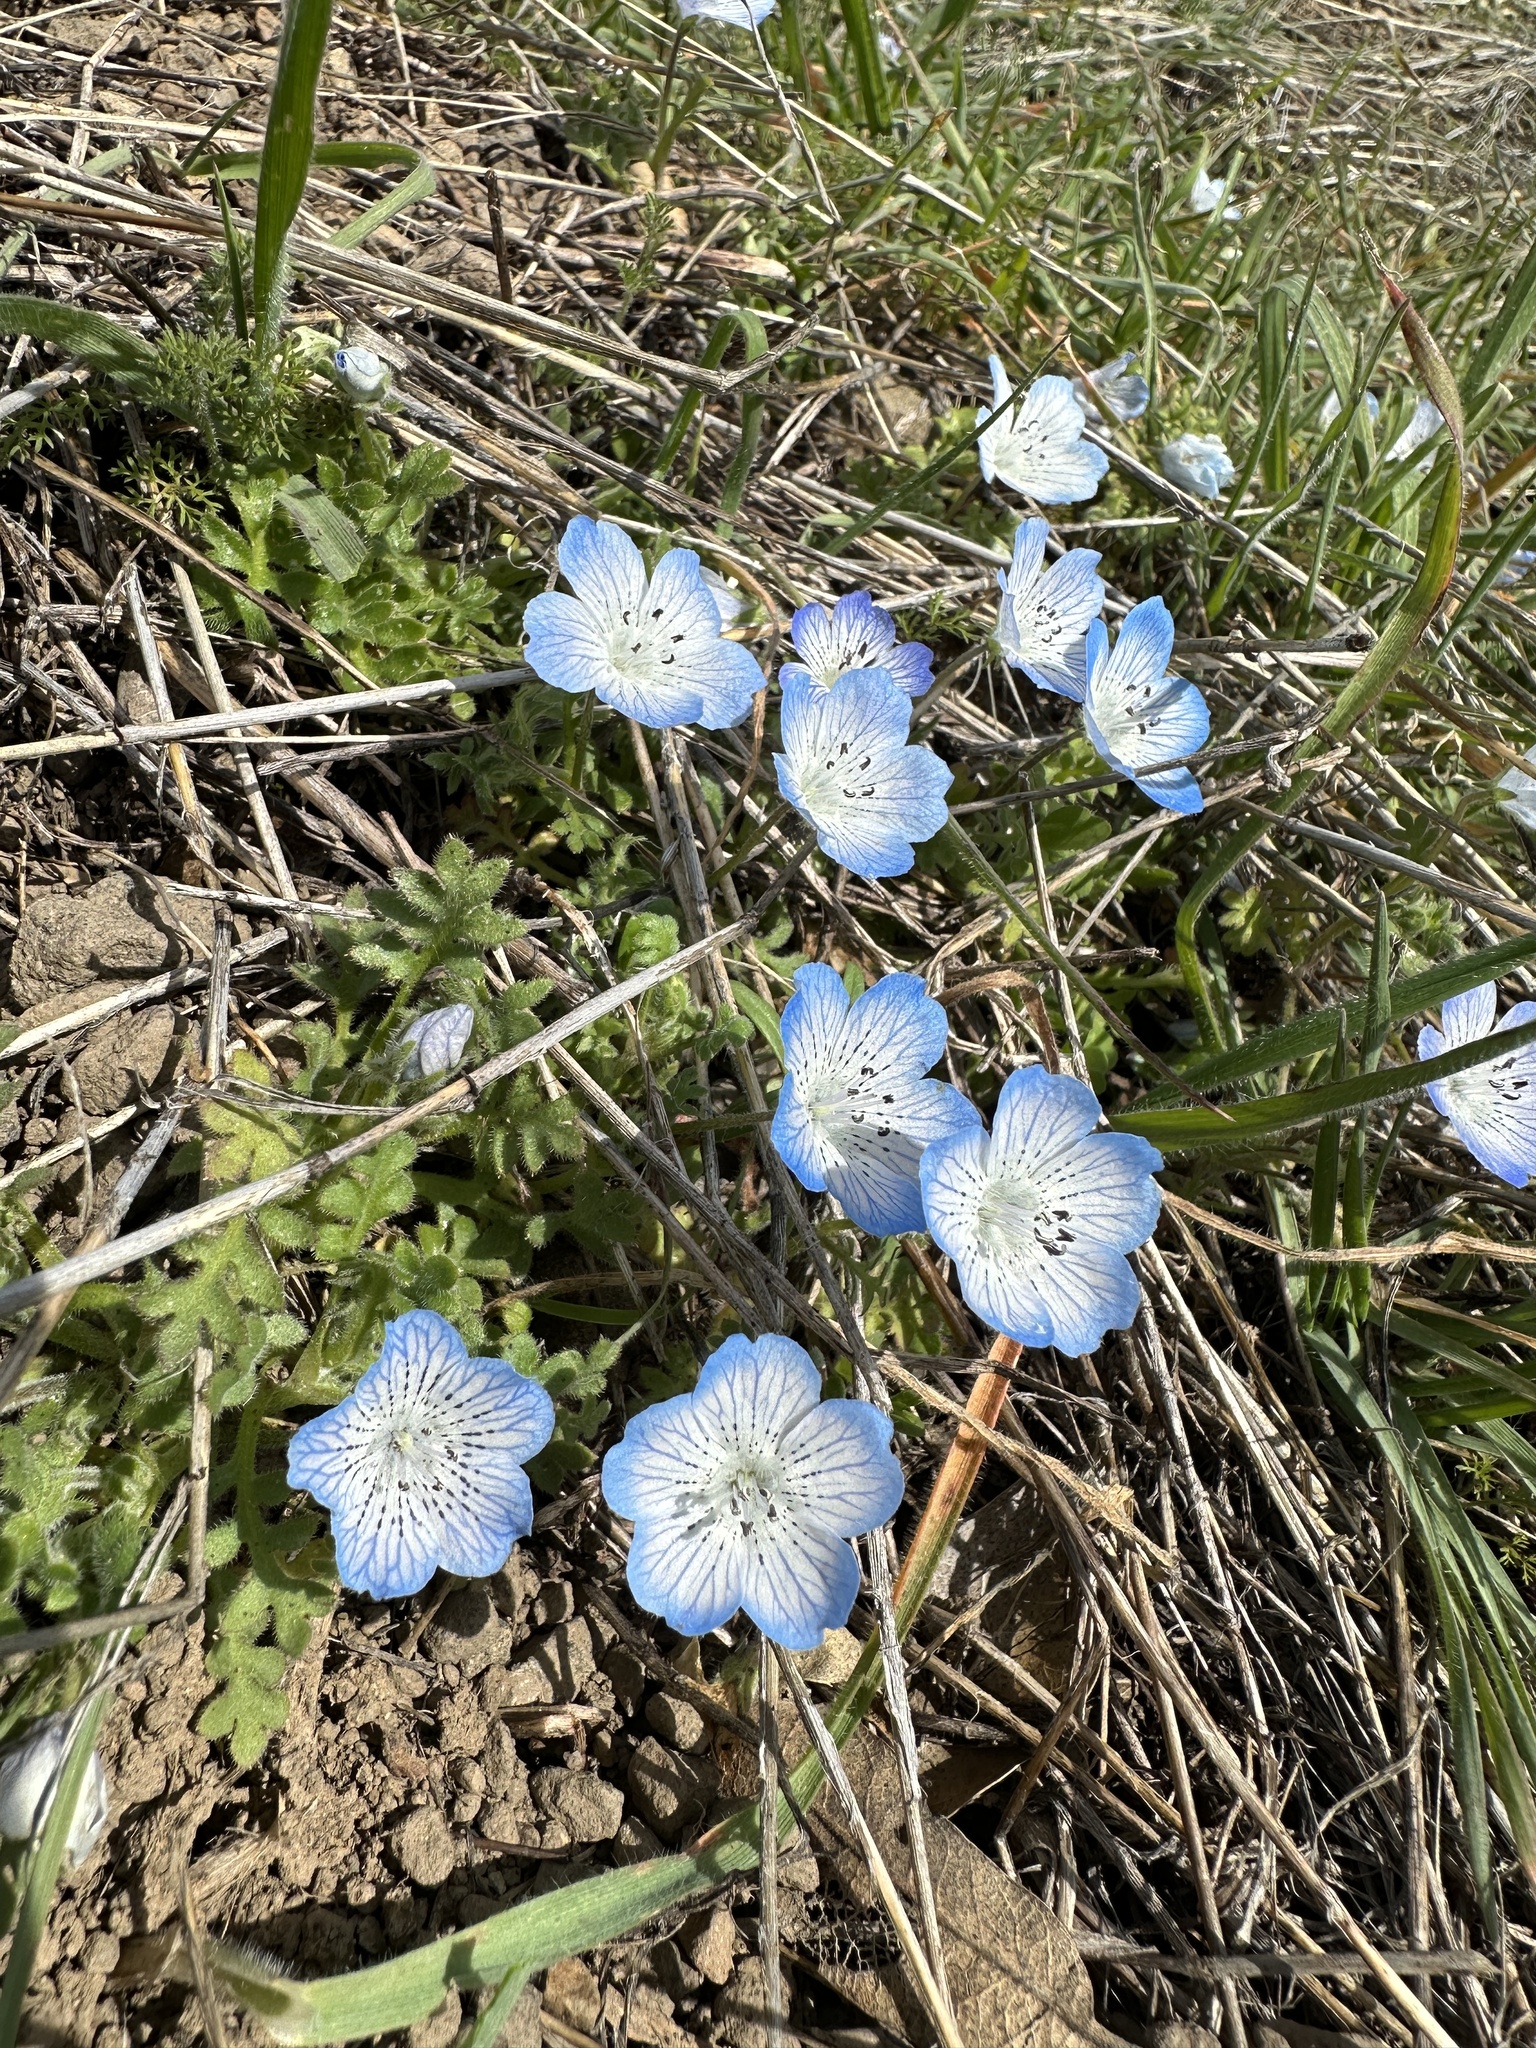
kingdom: Plantae
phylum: Tracheophyta
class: Magnoliopsida
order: Boraginales
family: Hydrophyllaceae
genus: Nemophila
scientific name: Nemophila menziesii
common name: Baby's-blue-eyes
